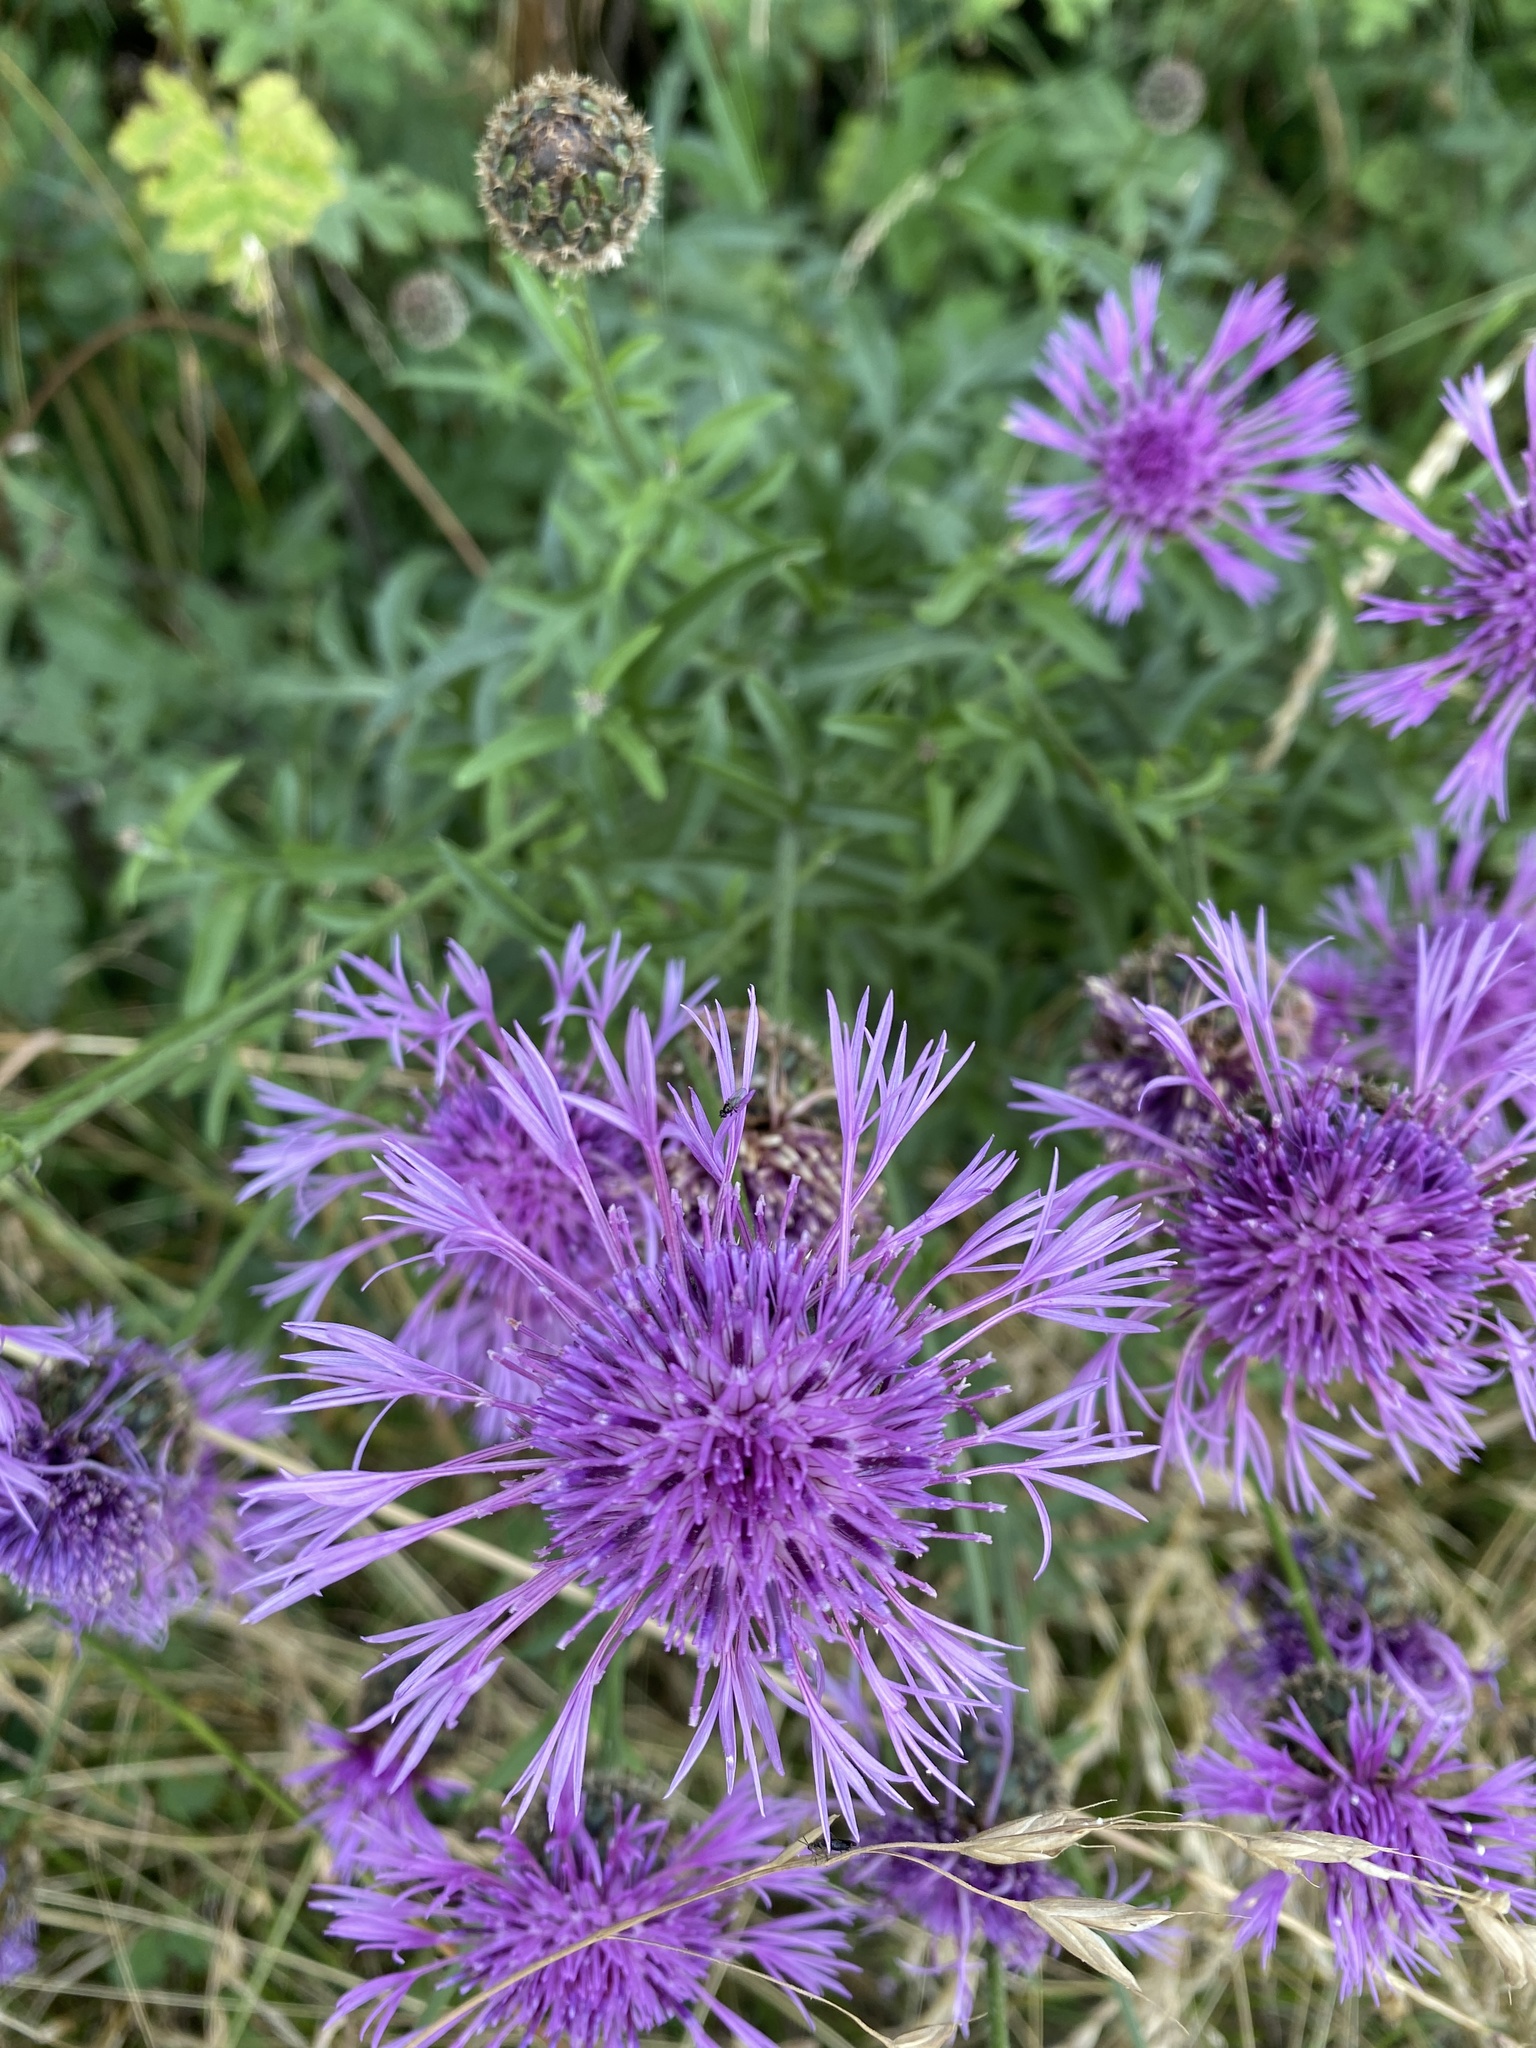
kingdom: Plantae
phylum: Tracheophyta
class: Magnoliopsida
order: Asterales
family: Asteraceae
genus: Centaurea
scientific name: Centaurea scabiosa
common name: Greater knapweed
